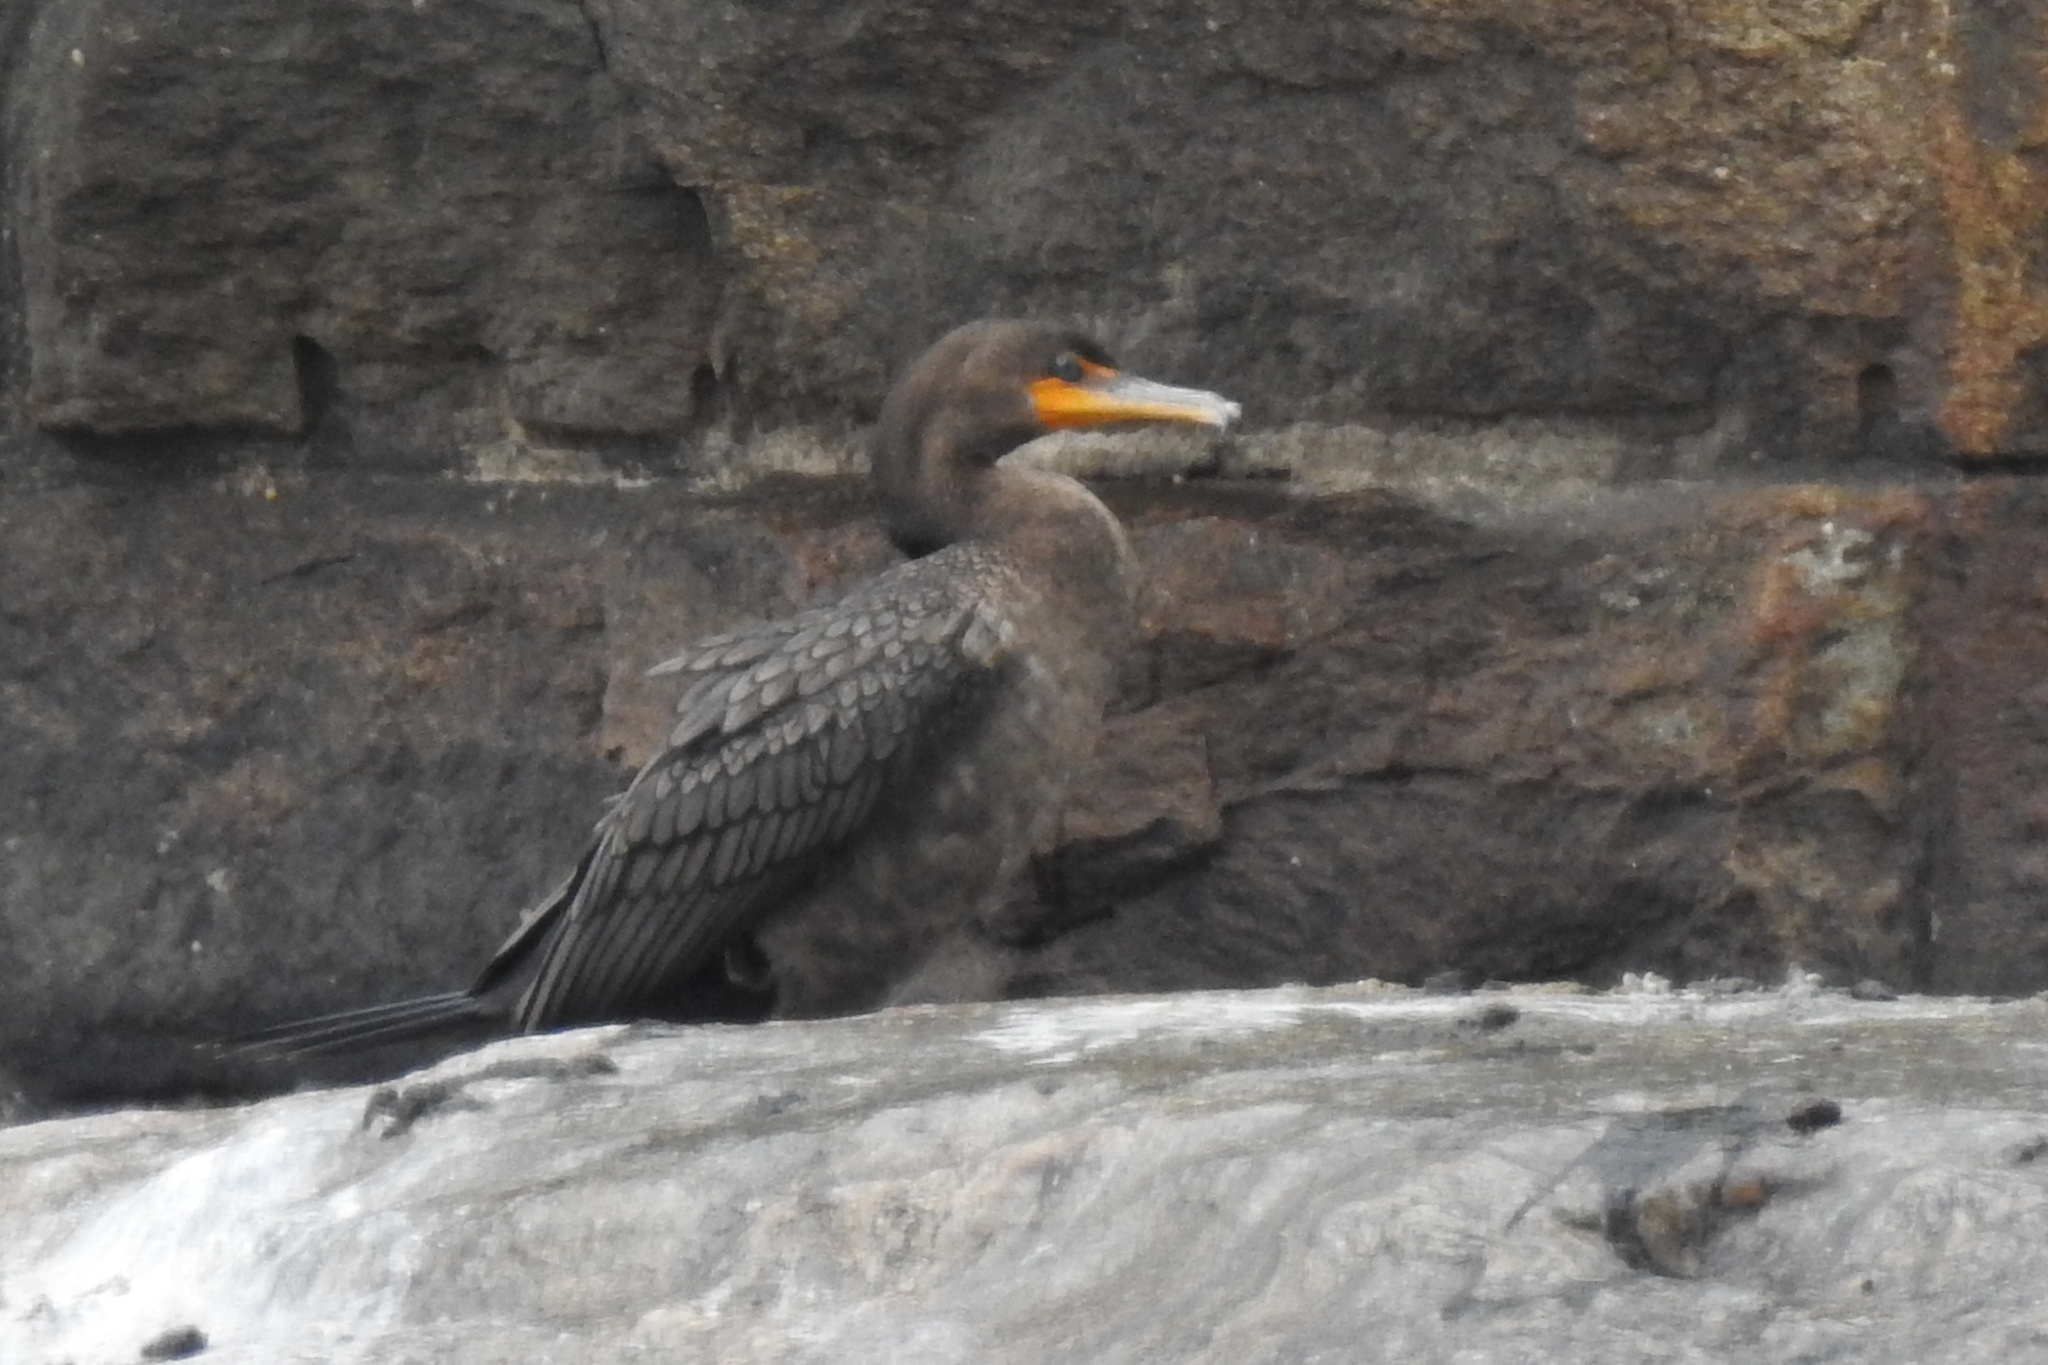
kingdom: Animalia
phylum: Chordata
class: Aves
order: Suliformes
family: Phalacrocoracidae
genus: Phalacrocorax
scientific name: Phalacrocorax auritus
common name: Double-crested cormorant
